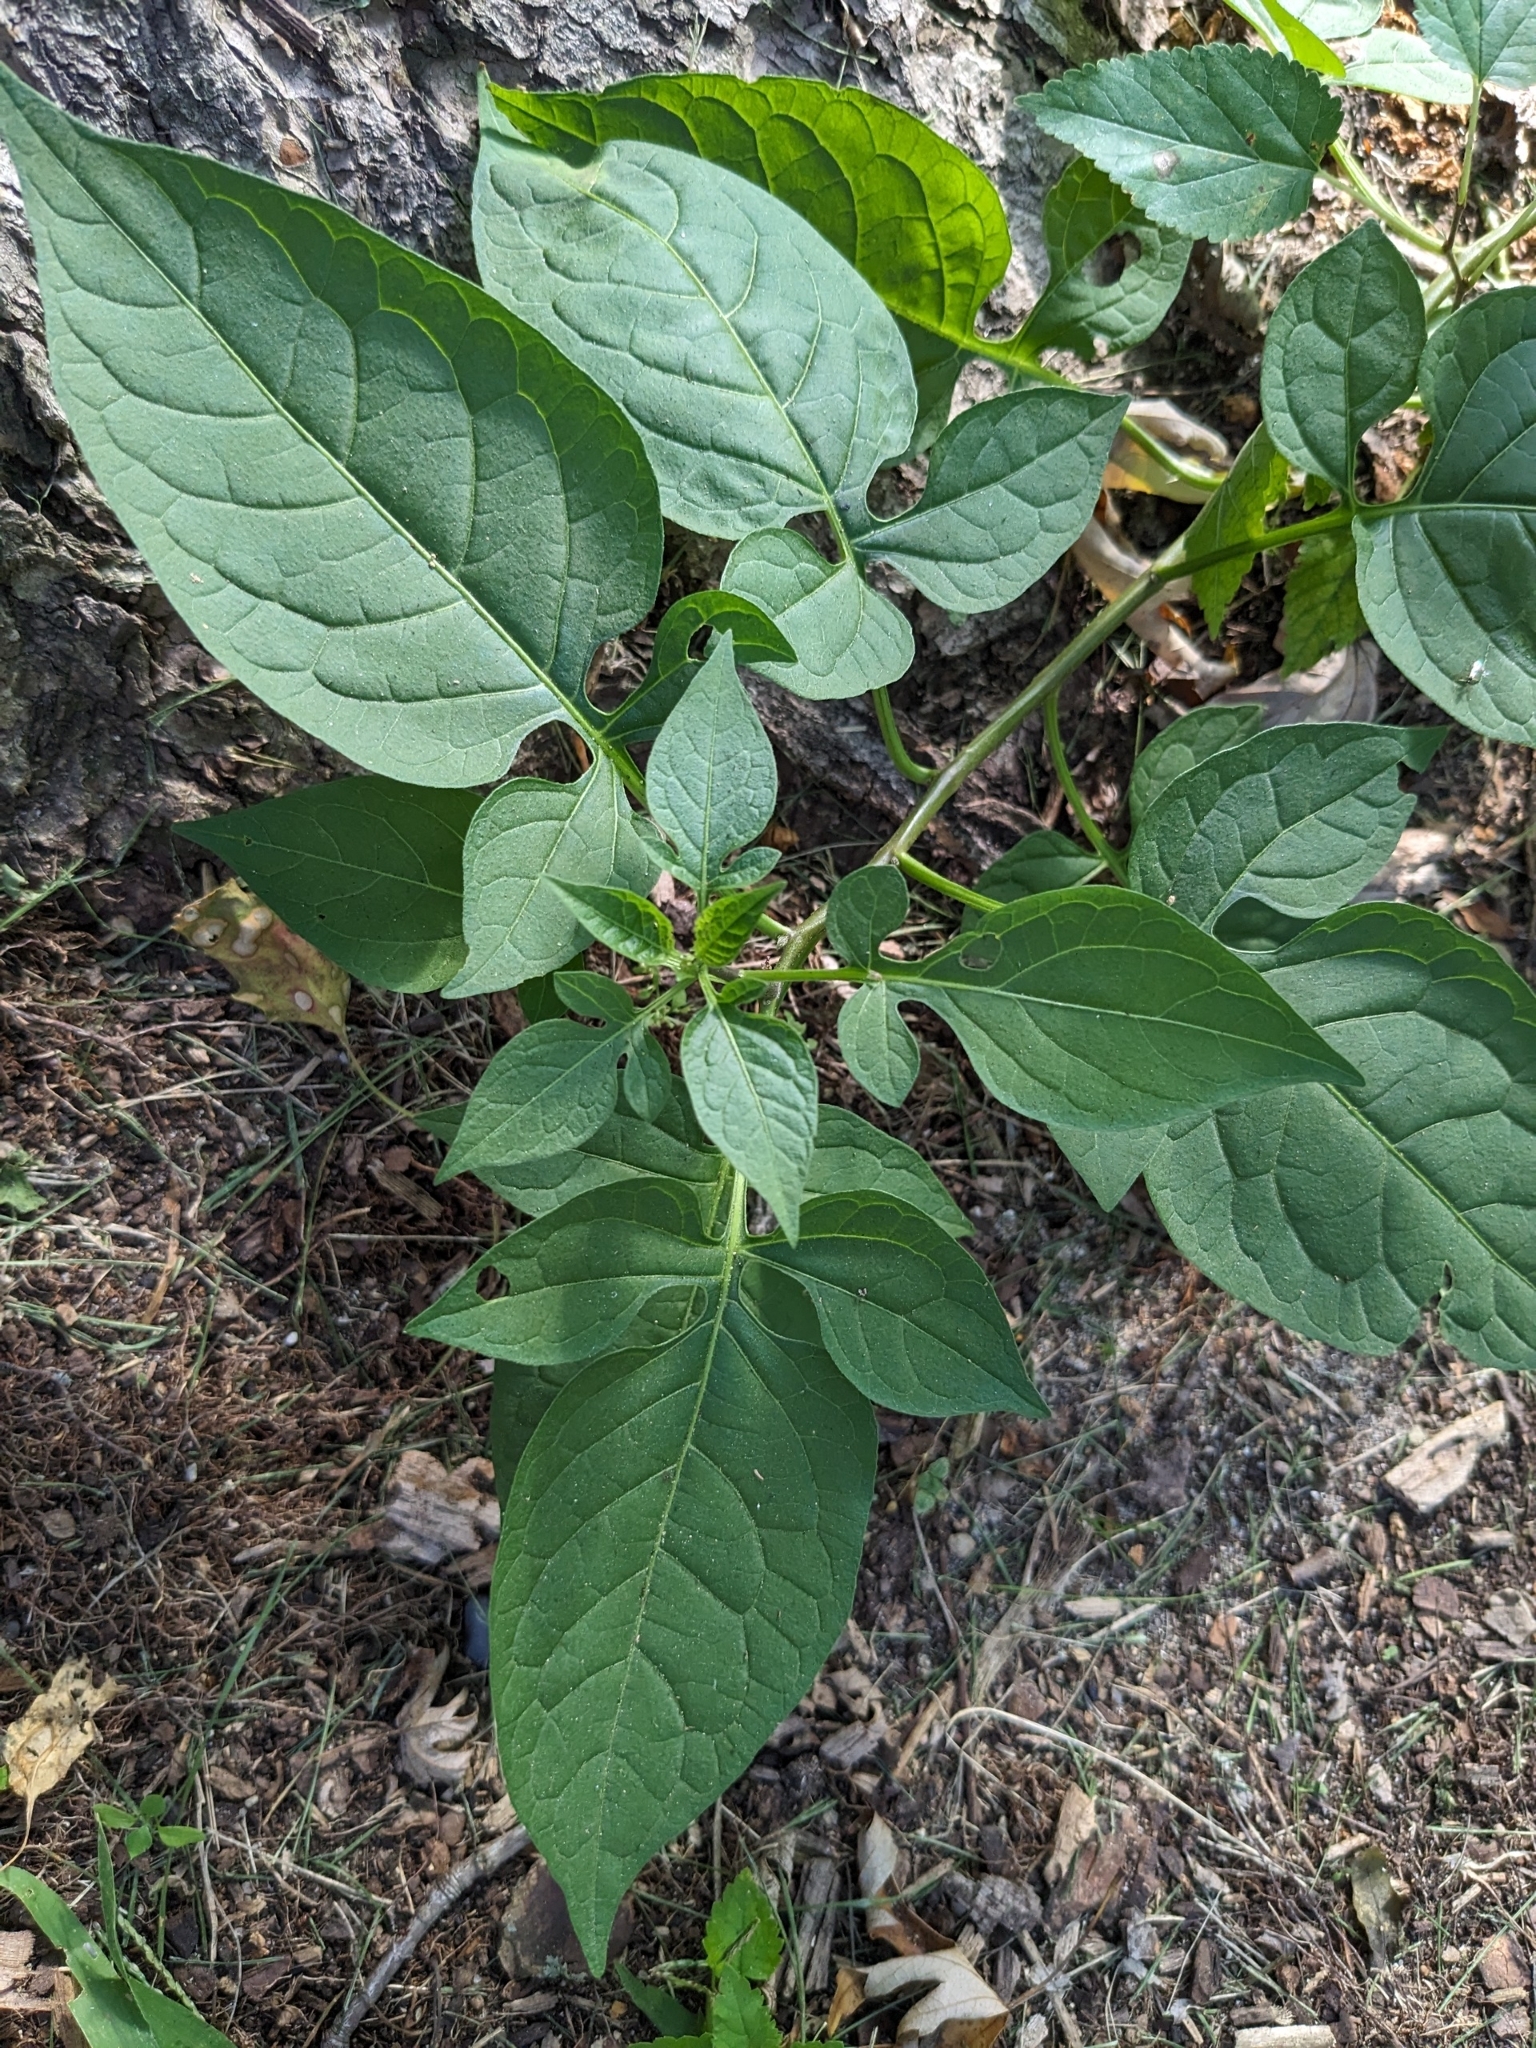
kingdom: Plantae
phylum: Tracheophyta
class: Magnoliopsida
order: Solanales
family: Solanaceae
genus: Solanum
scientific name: Solanum dulcamara
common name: Climbing nightshade
